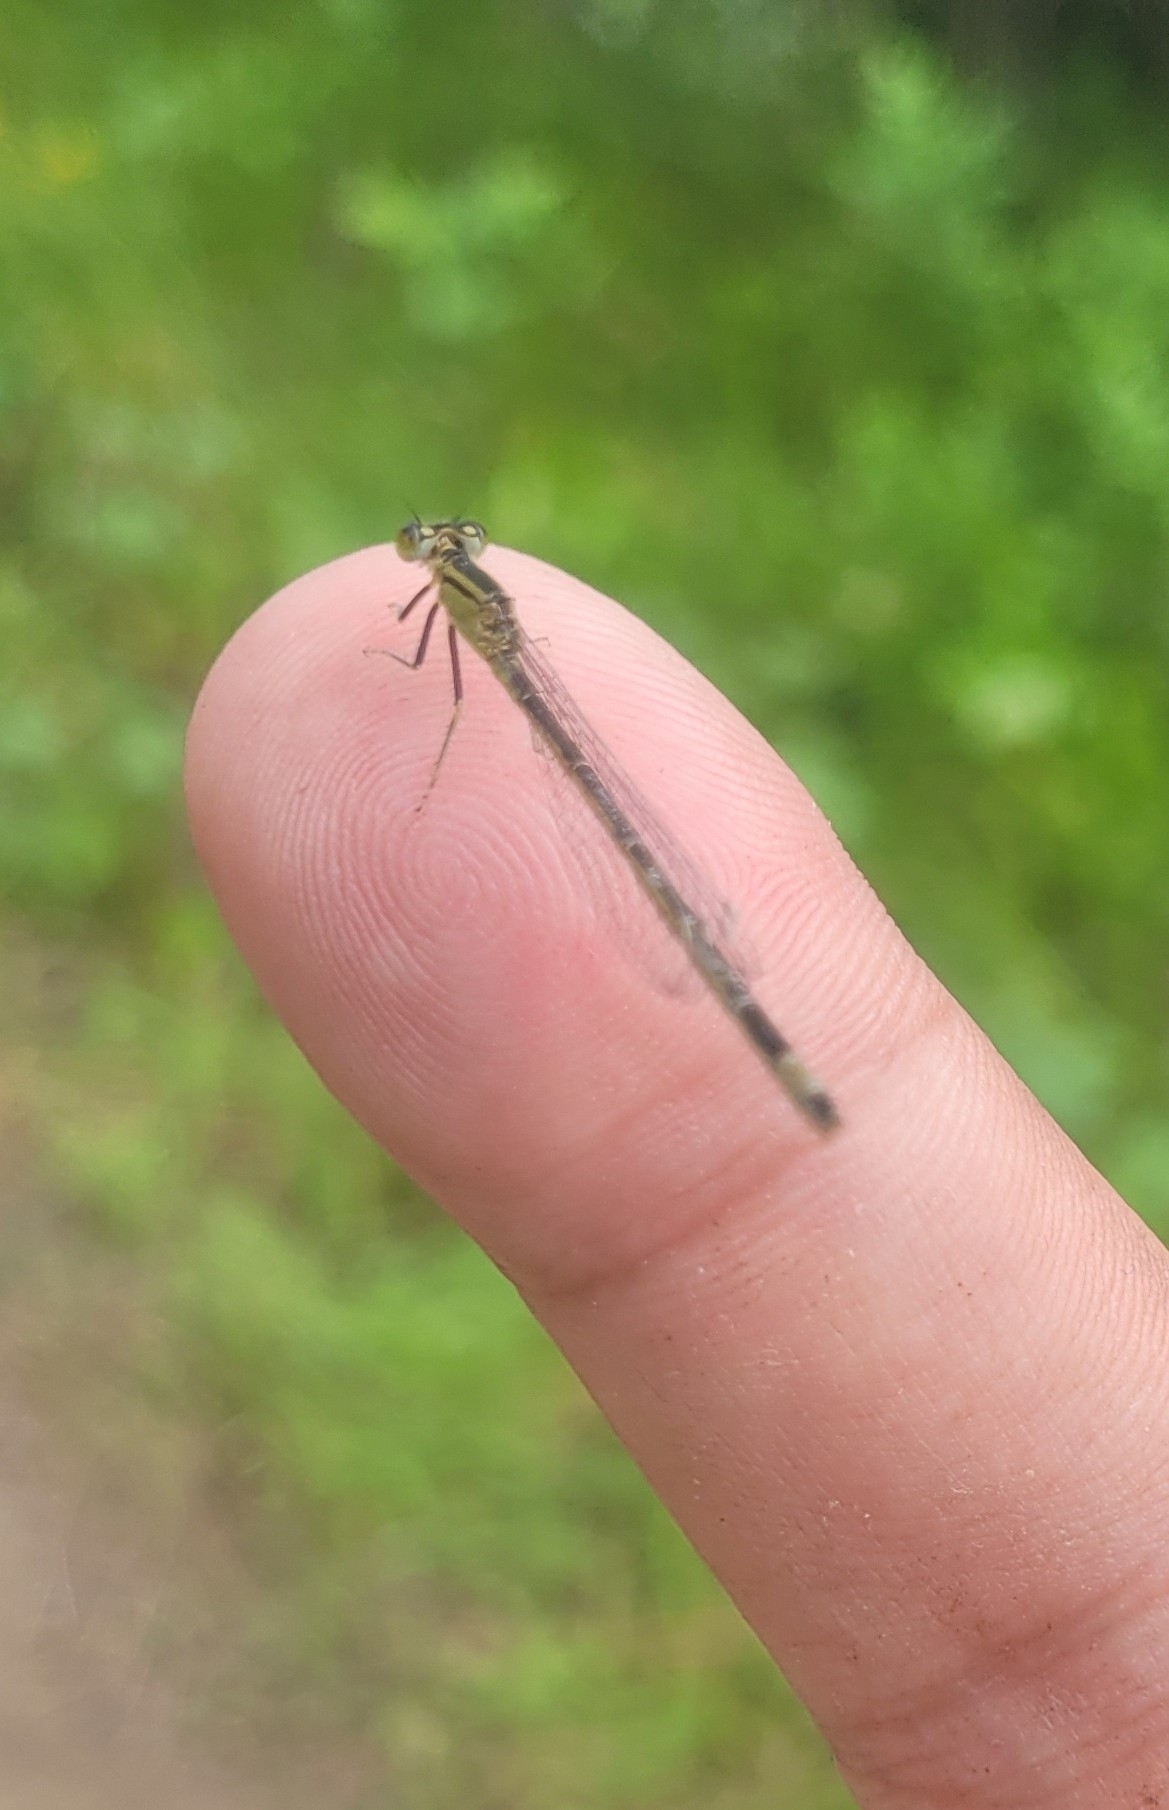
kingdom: Animalia
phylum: Arthropoda
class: Insecta
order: Odonata
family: Coenagrionidae
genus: Ischnura
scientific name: Ischnura elegans
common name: Blue-tailed damselfly
